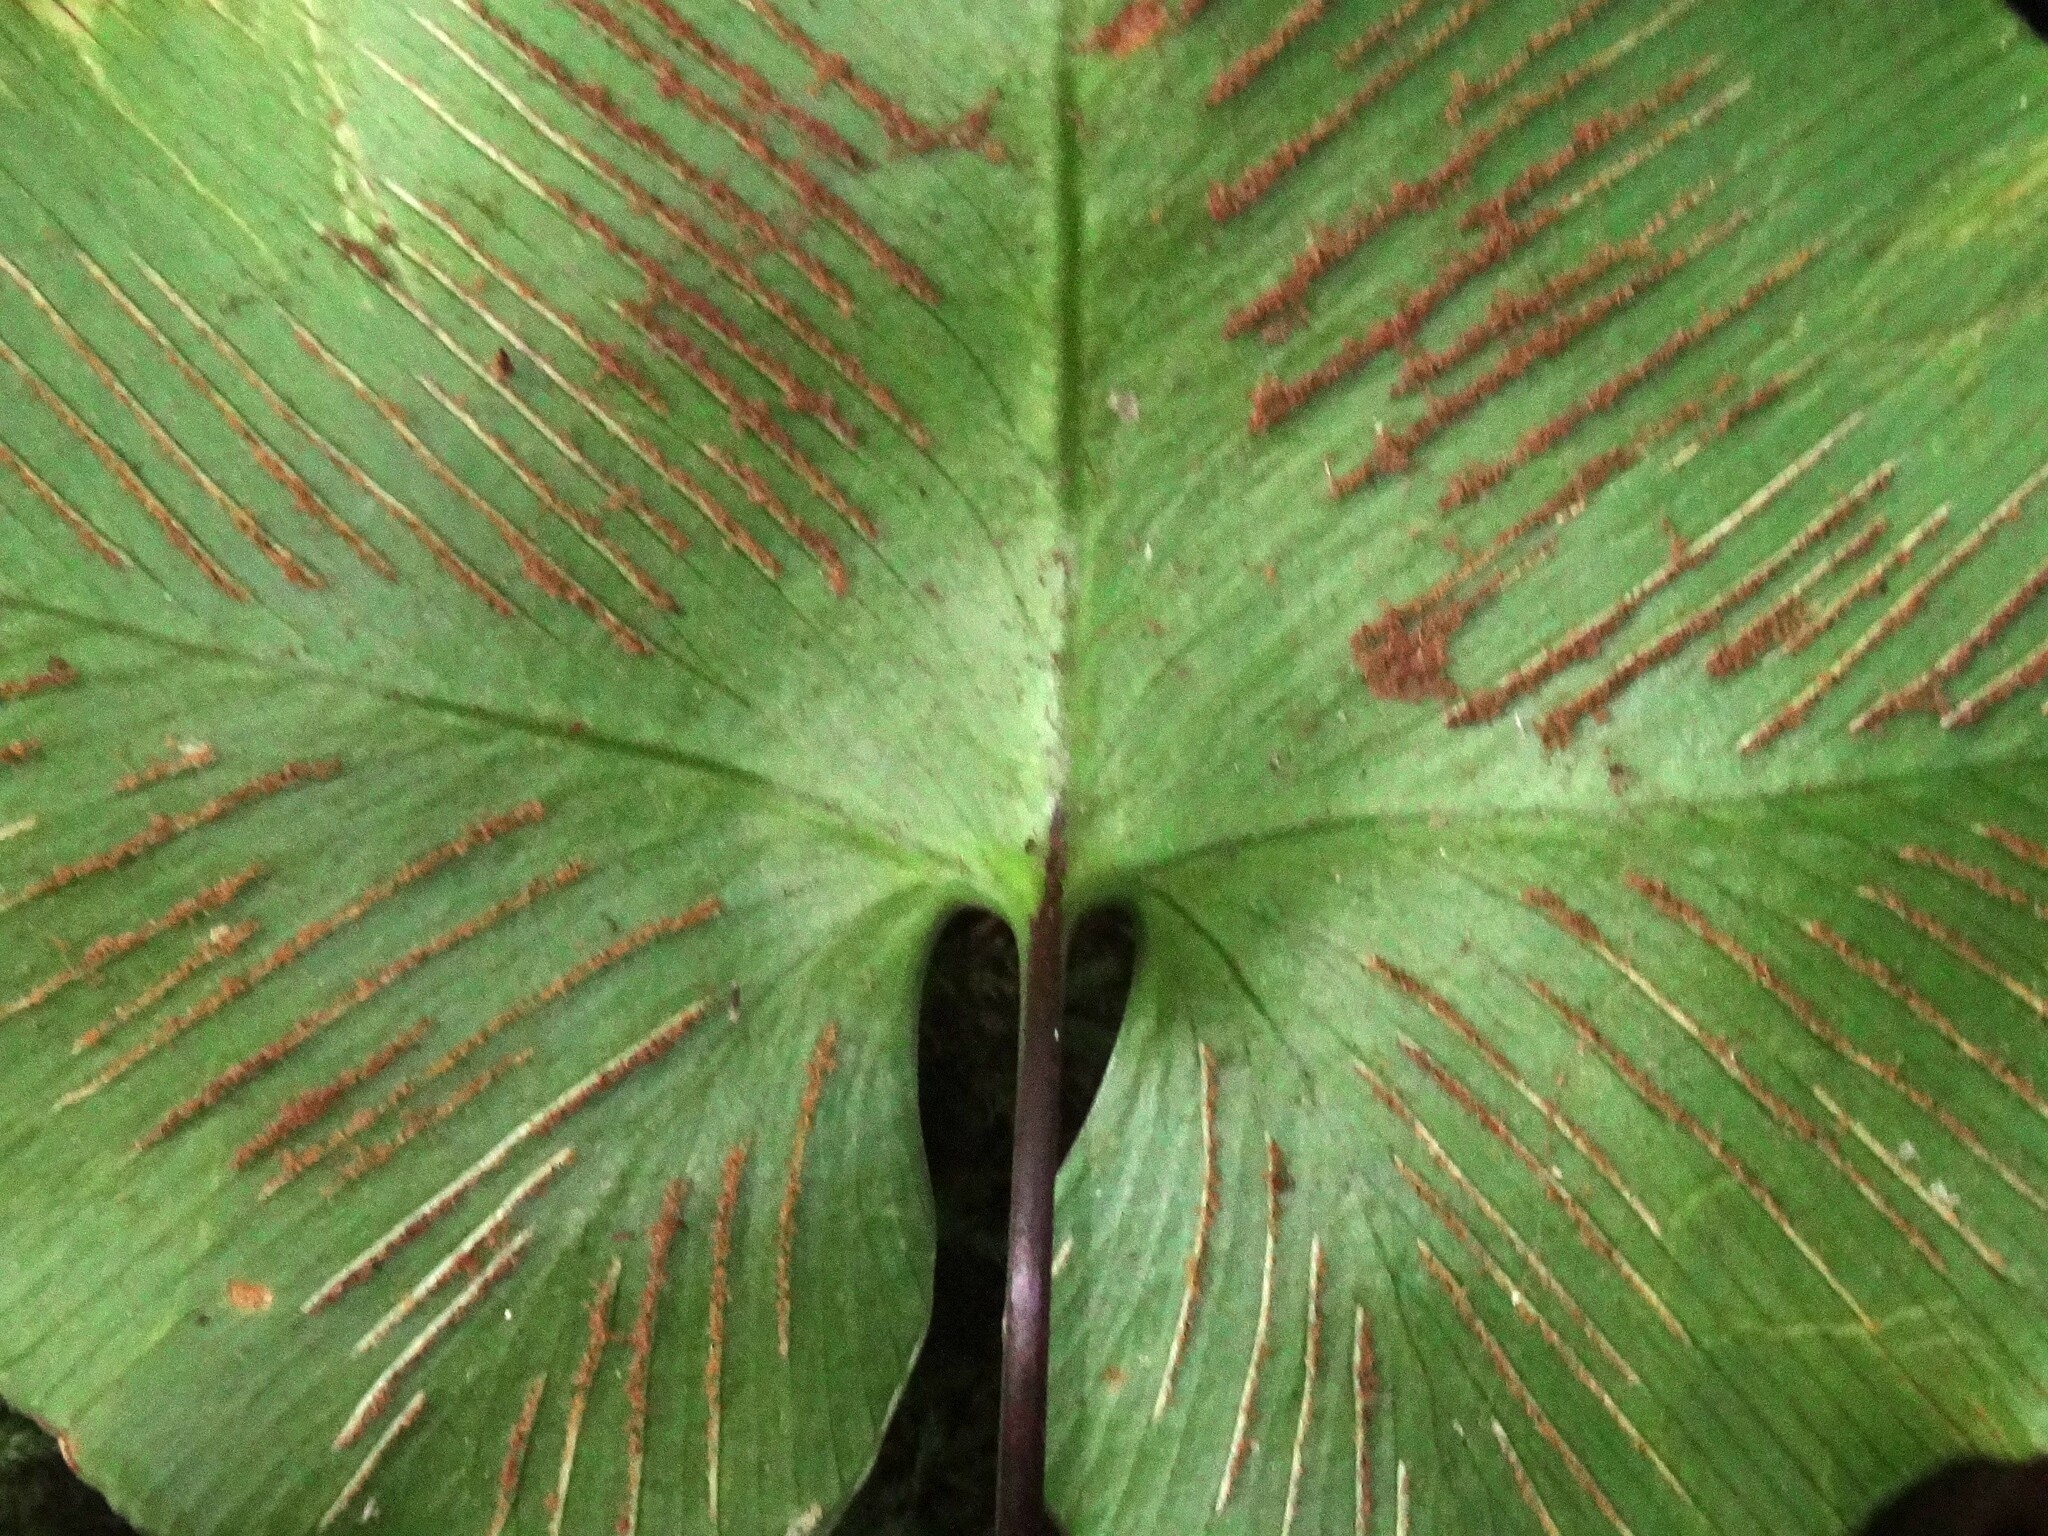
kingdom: Plantae
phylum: Tracheophyta
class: Polypodiopsida
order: Polypodiales
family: Aspleniaceae
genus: Asplenium
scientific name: Asplenium hemionitis
